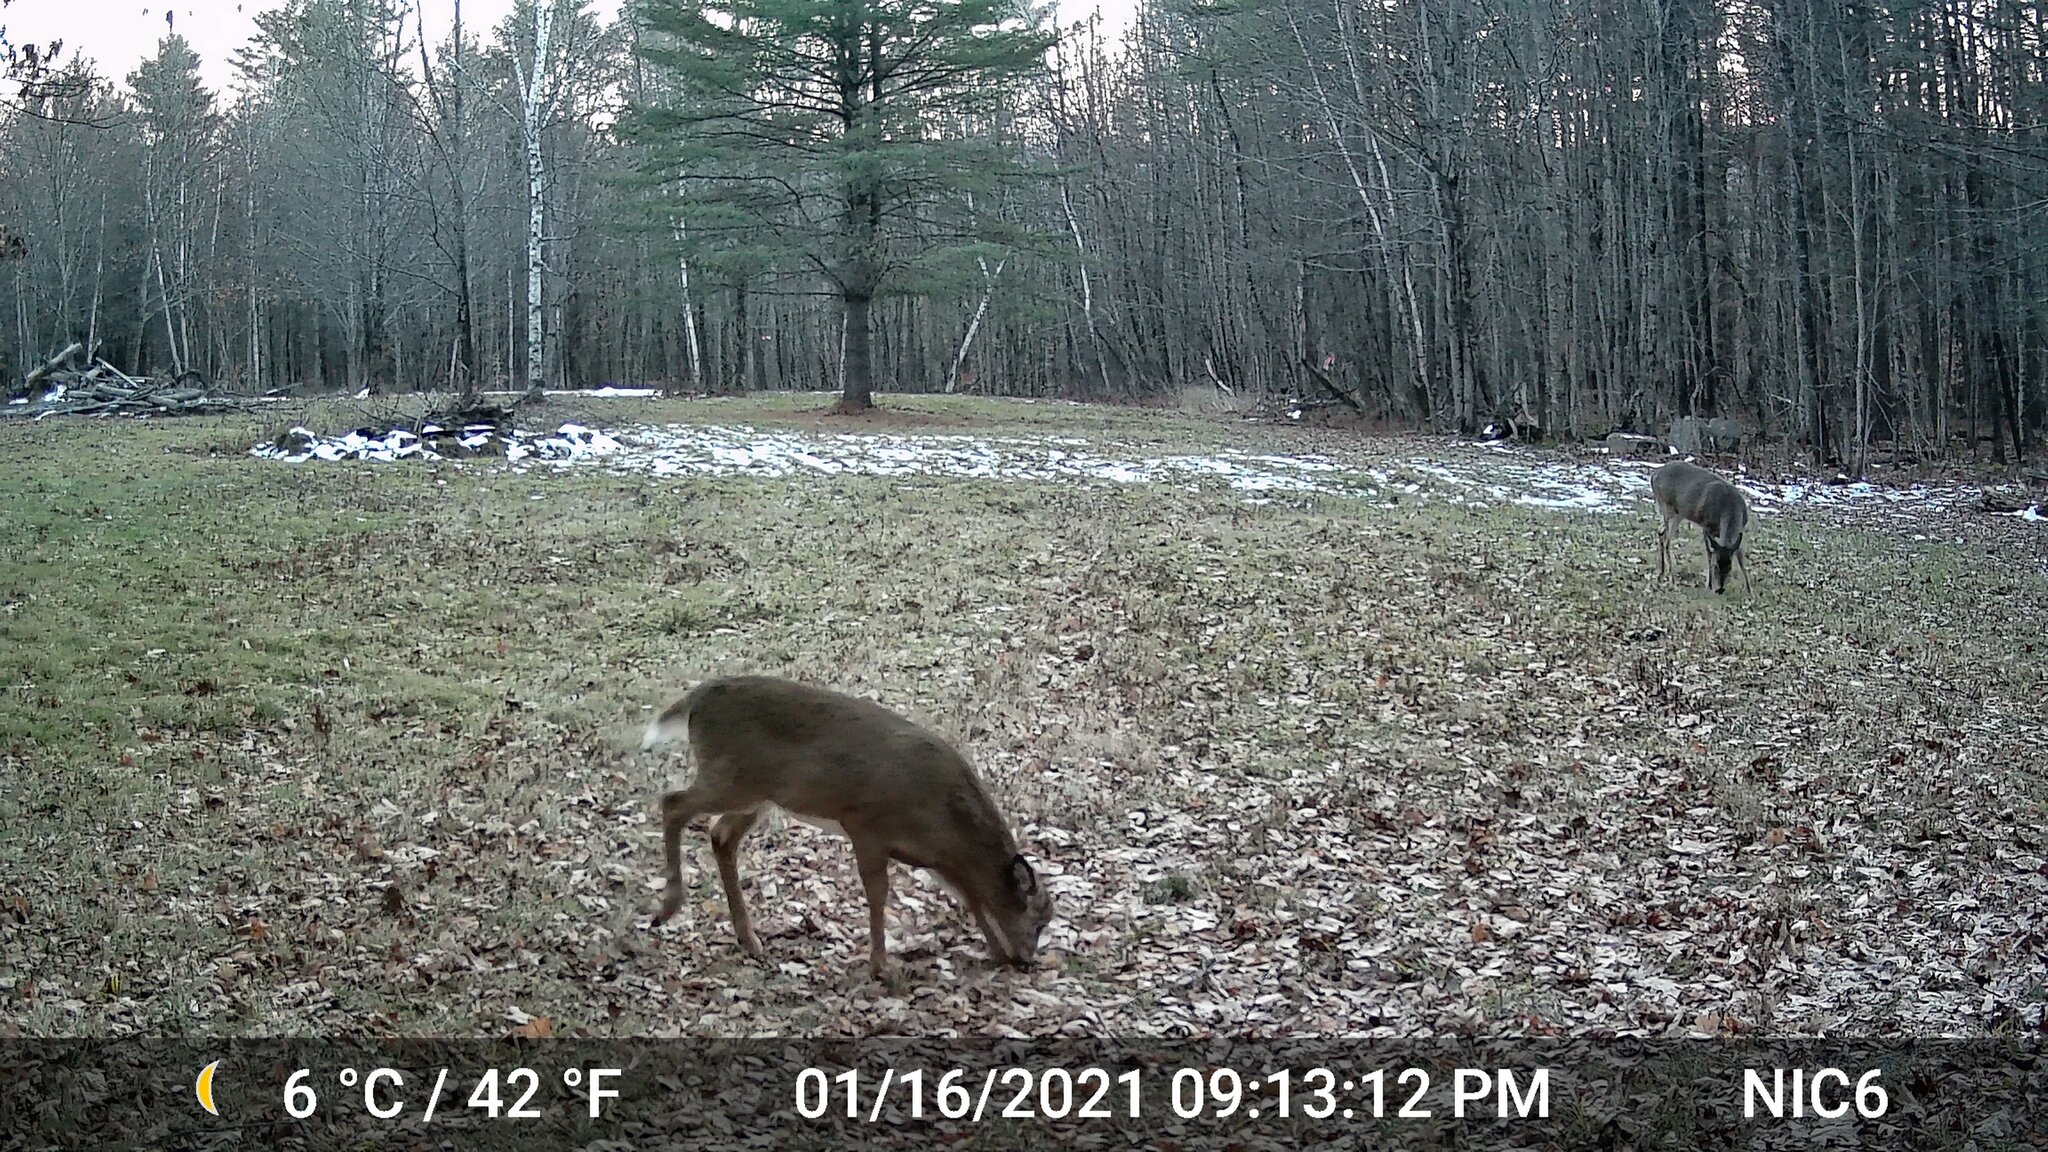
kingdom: Animalia
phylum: Chordata
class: Mammalia
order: Artiodactyla
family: Cervidae
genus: Odocoileus
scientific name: Odocoileus virginianus
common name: White-tailed deer
